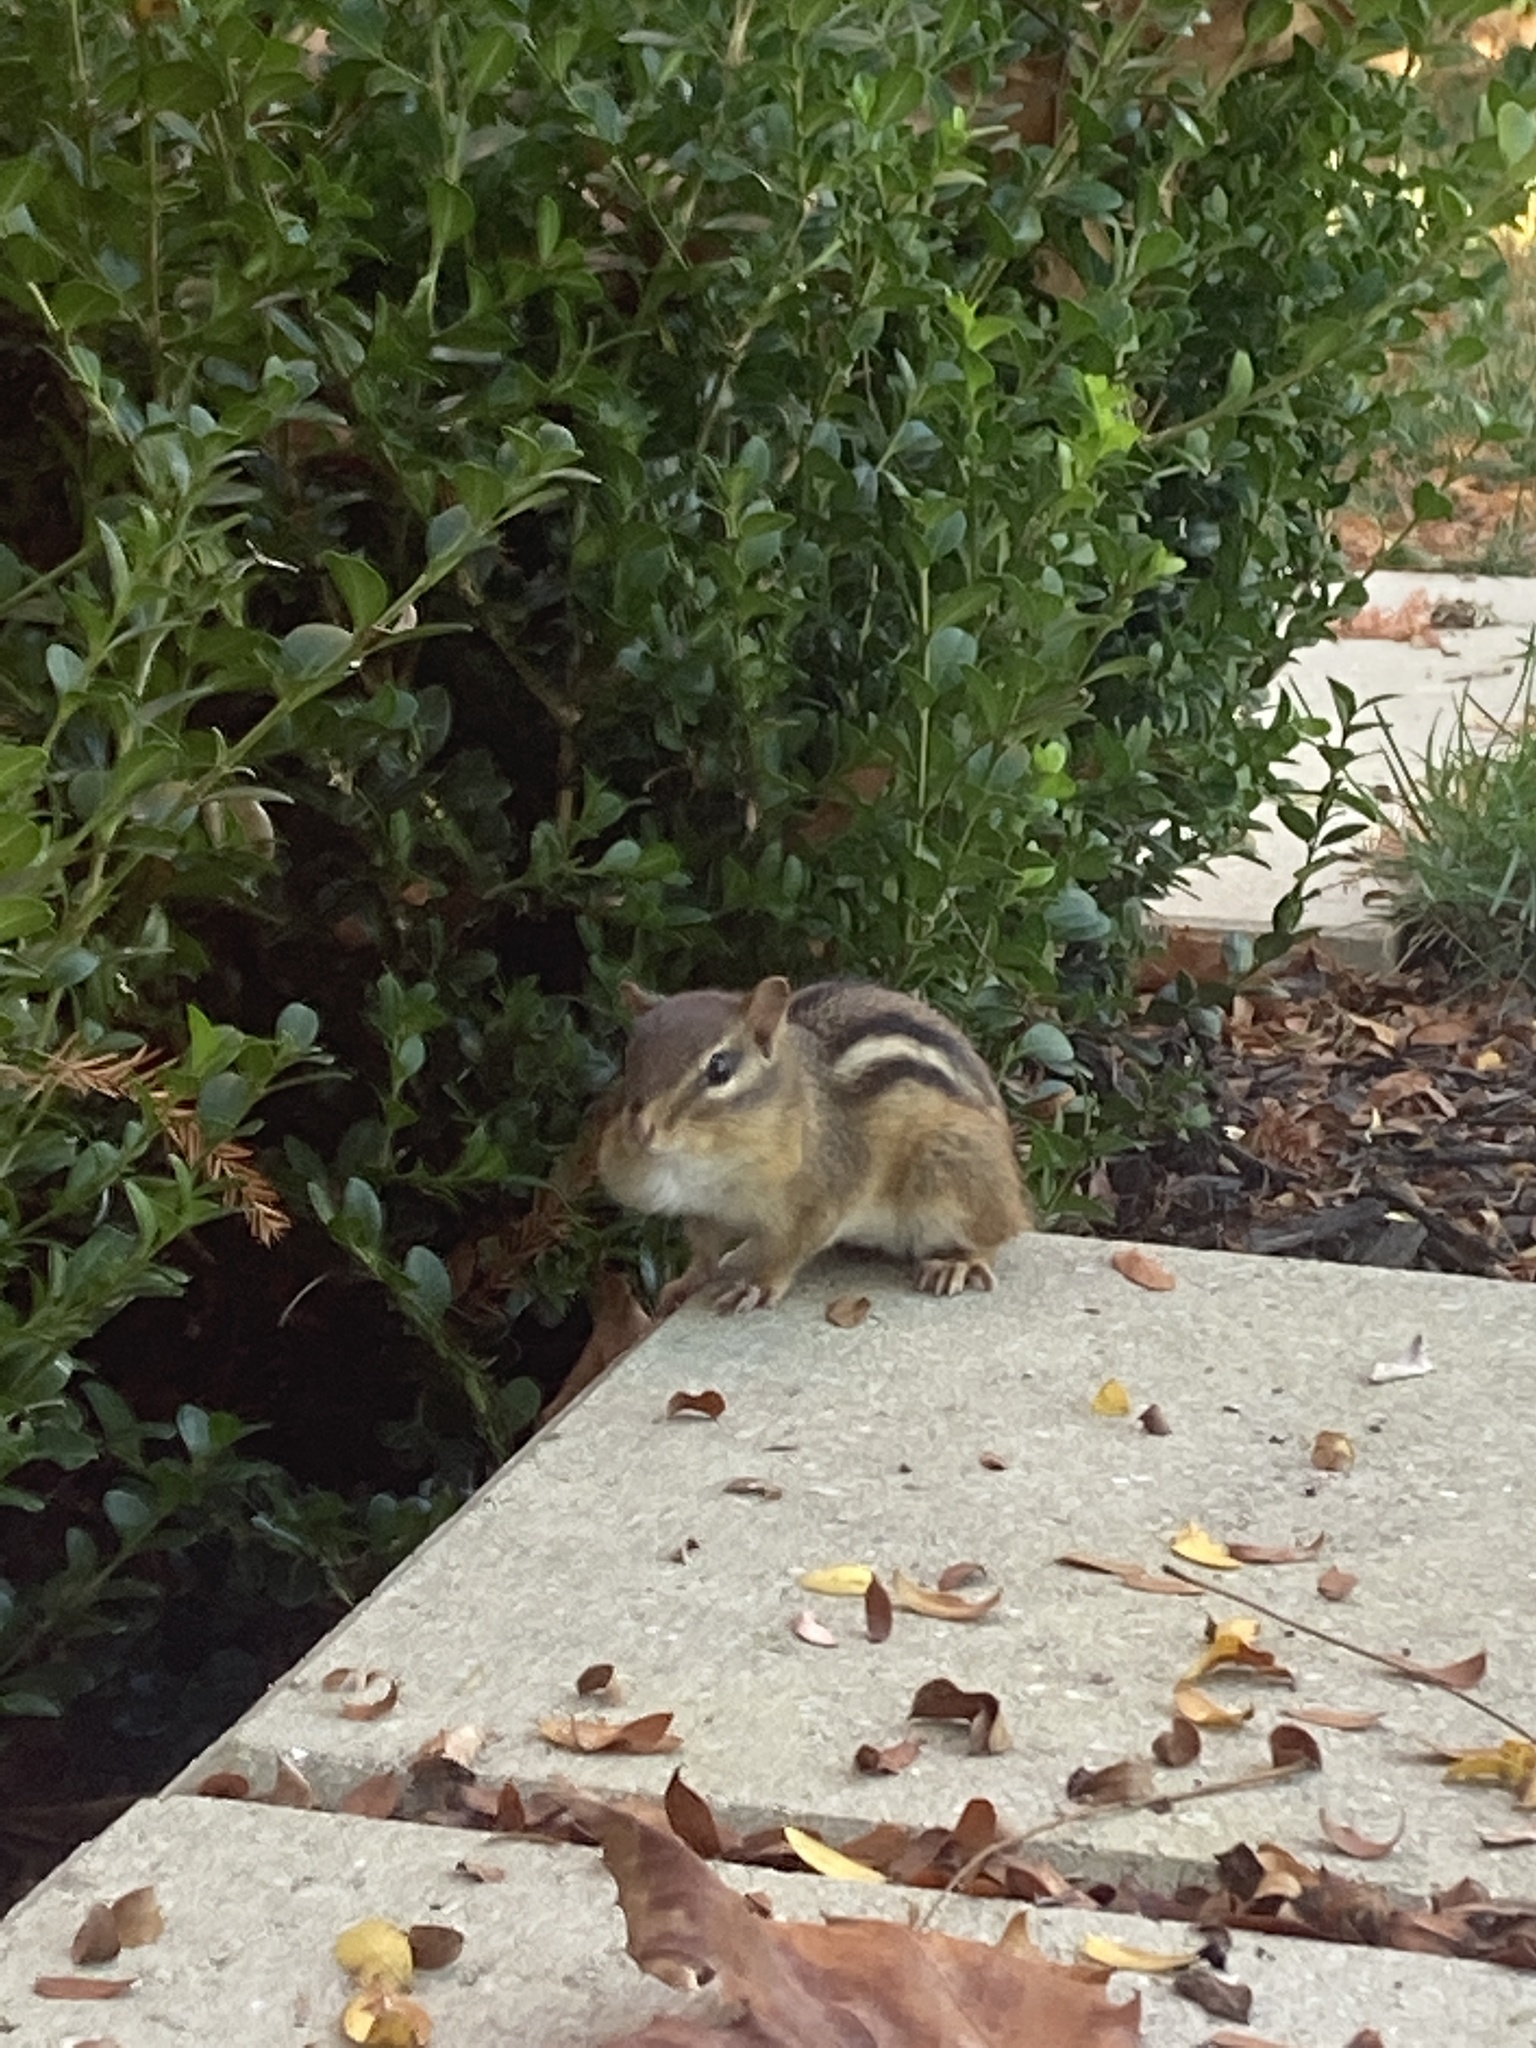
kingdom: Animalia
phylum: Chordata
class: Mammalia
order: Rodentia
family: Sciuridae
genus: Tamias
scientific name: Tamias striatus
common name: Eastern chipmunk
